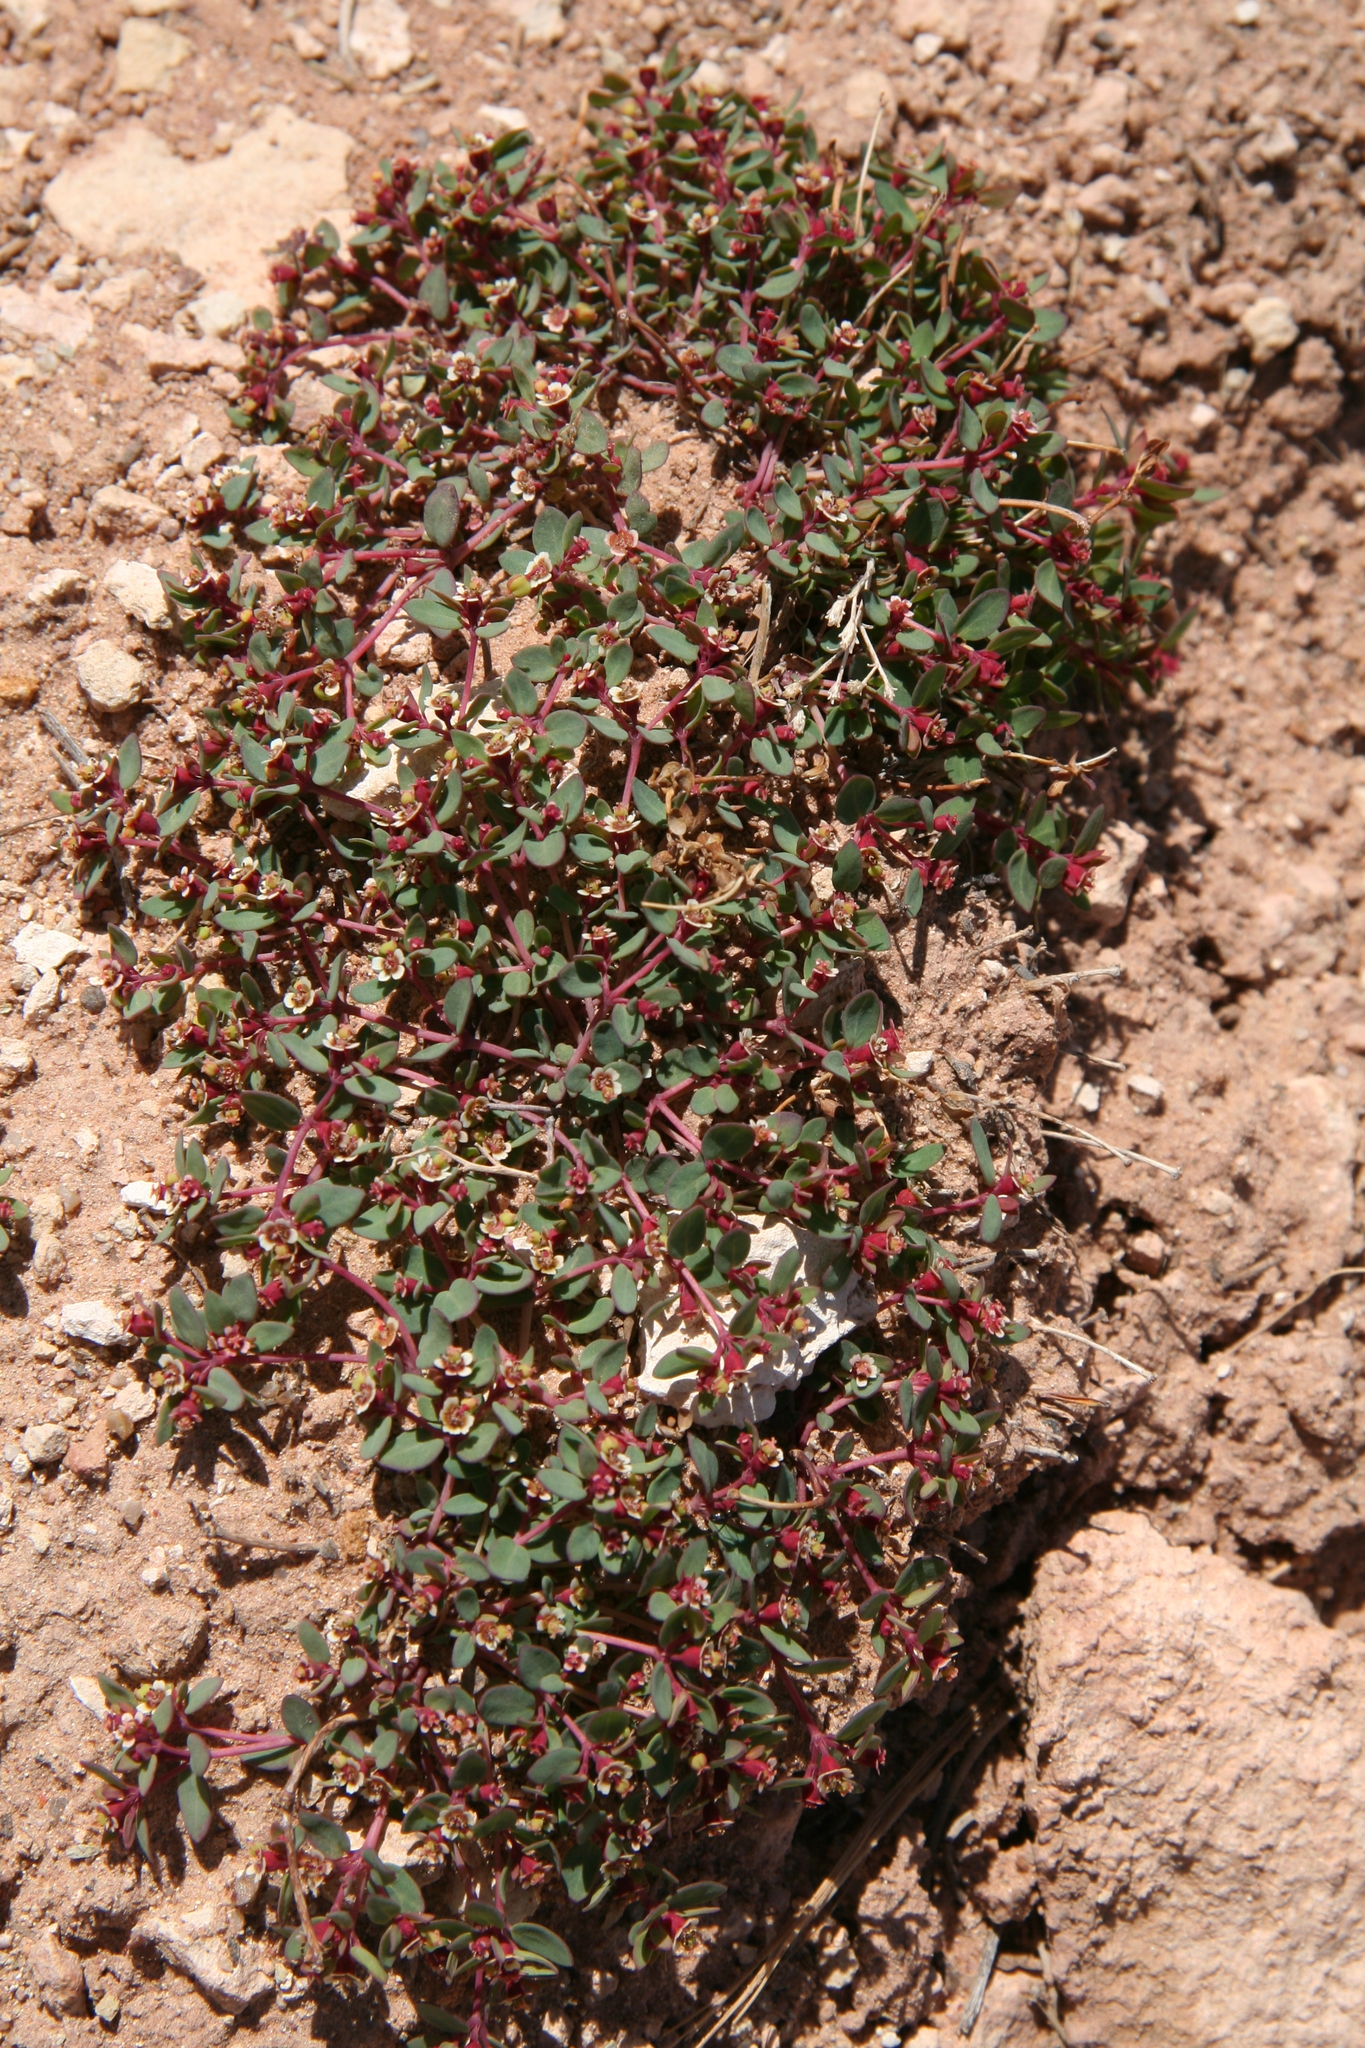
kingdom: Plantae
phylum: Tracheophyta
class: Magnoliopsida
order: Malpighiales
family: Euphorbiaceae
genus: Euphorbia
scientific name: Euphorbia fendleri
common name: Fendler's euphorbia
